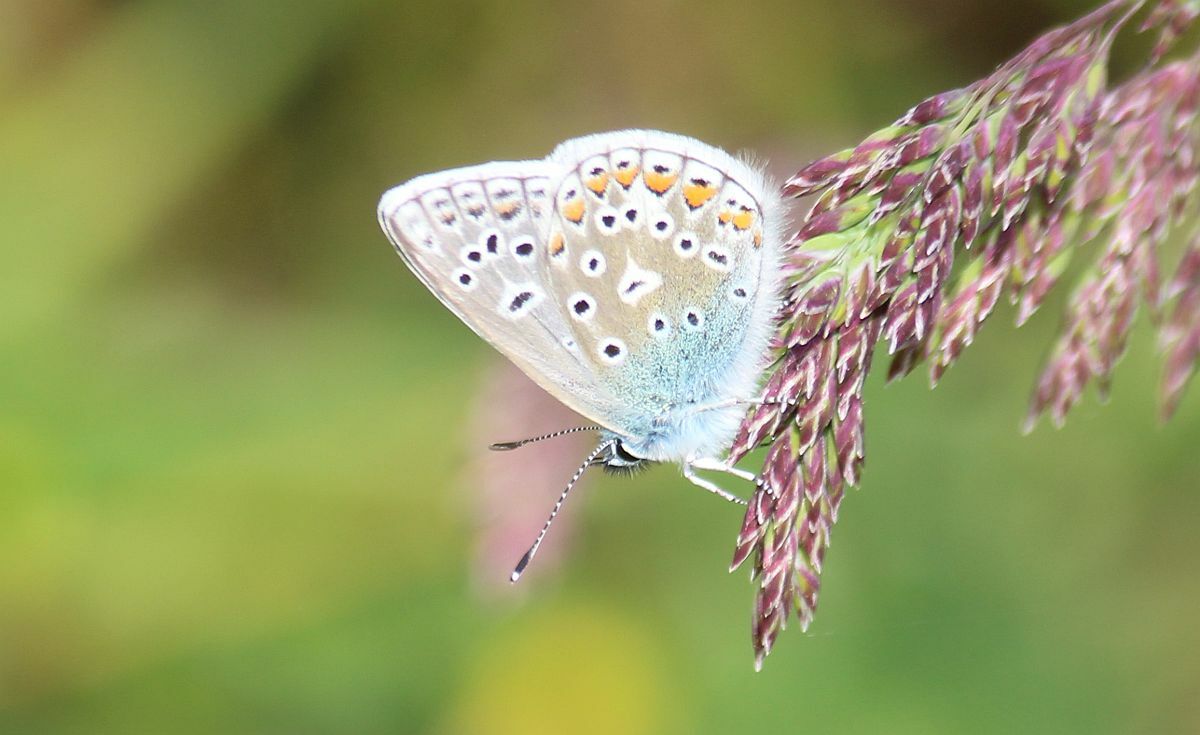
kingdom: Animalia
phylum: Arthropoda
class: Insecta
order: Lepidoptera
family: Lycaenidae
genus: Polyommatus
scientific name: Polyommatus icarus
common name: Common blue
